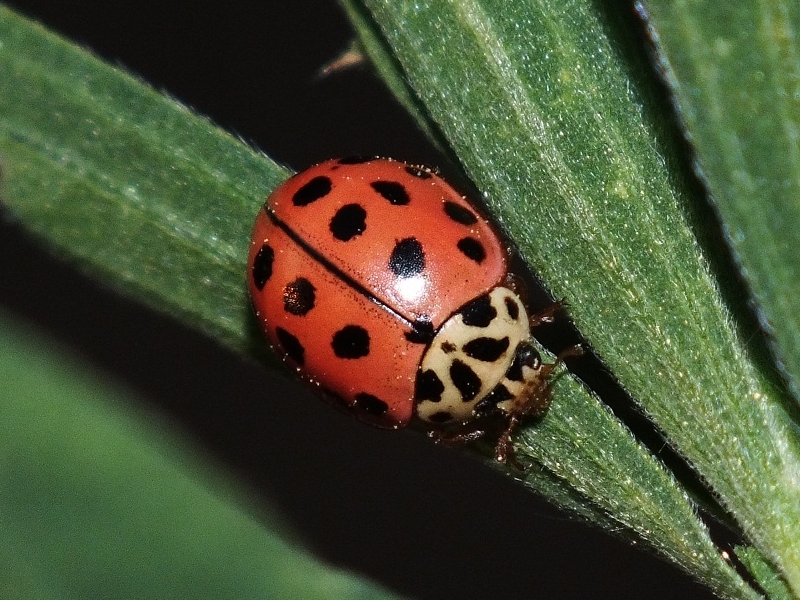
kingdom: Animalia
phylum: Arthropoda
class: Insecta
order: Coleoptera
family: Coccinellidae
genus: Bulaea
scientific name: Bulaea lichatschovi
